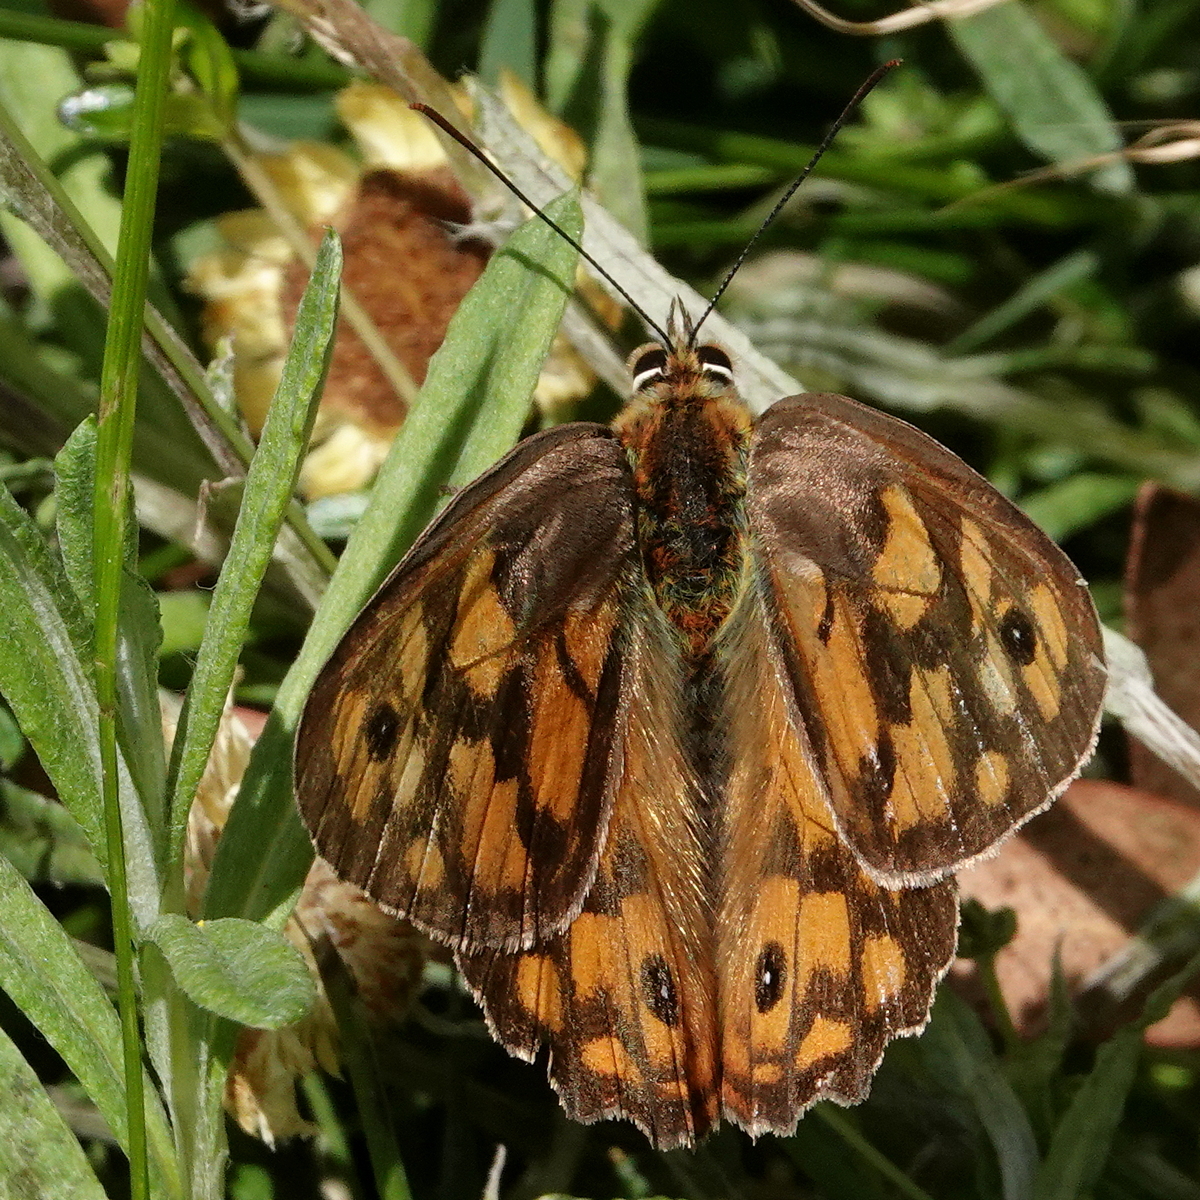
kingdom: Animalia
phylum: Arthropoda
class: Insecta
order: Lepidoptera
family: Nymphalidae
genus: Heteronympha
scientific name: Heteronympha penelope
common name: Shouldered brown
